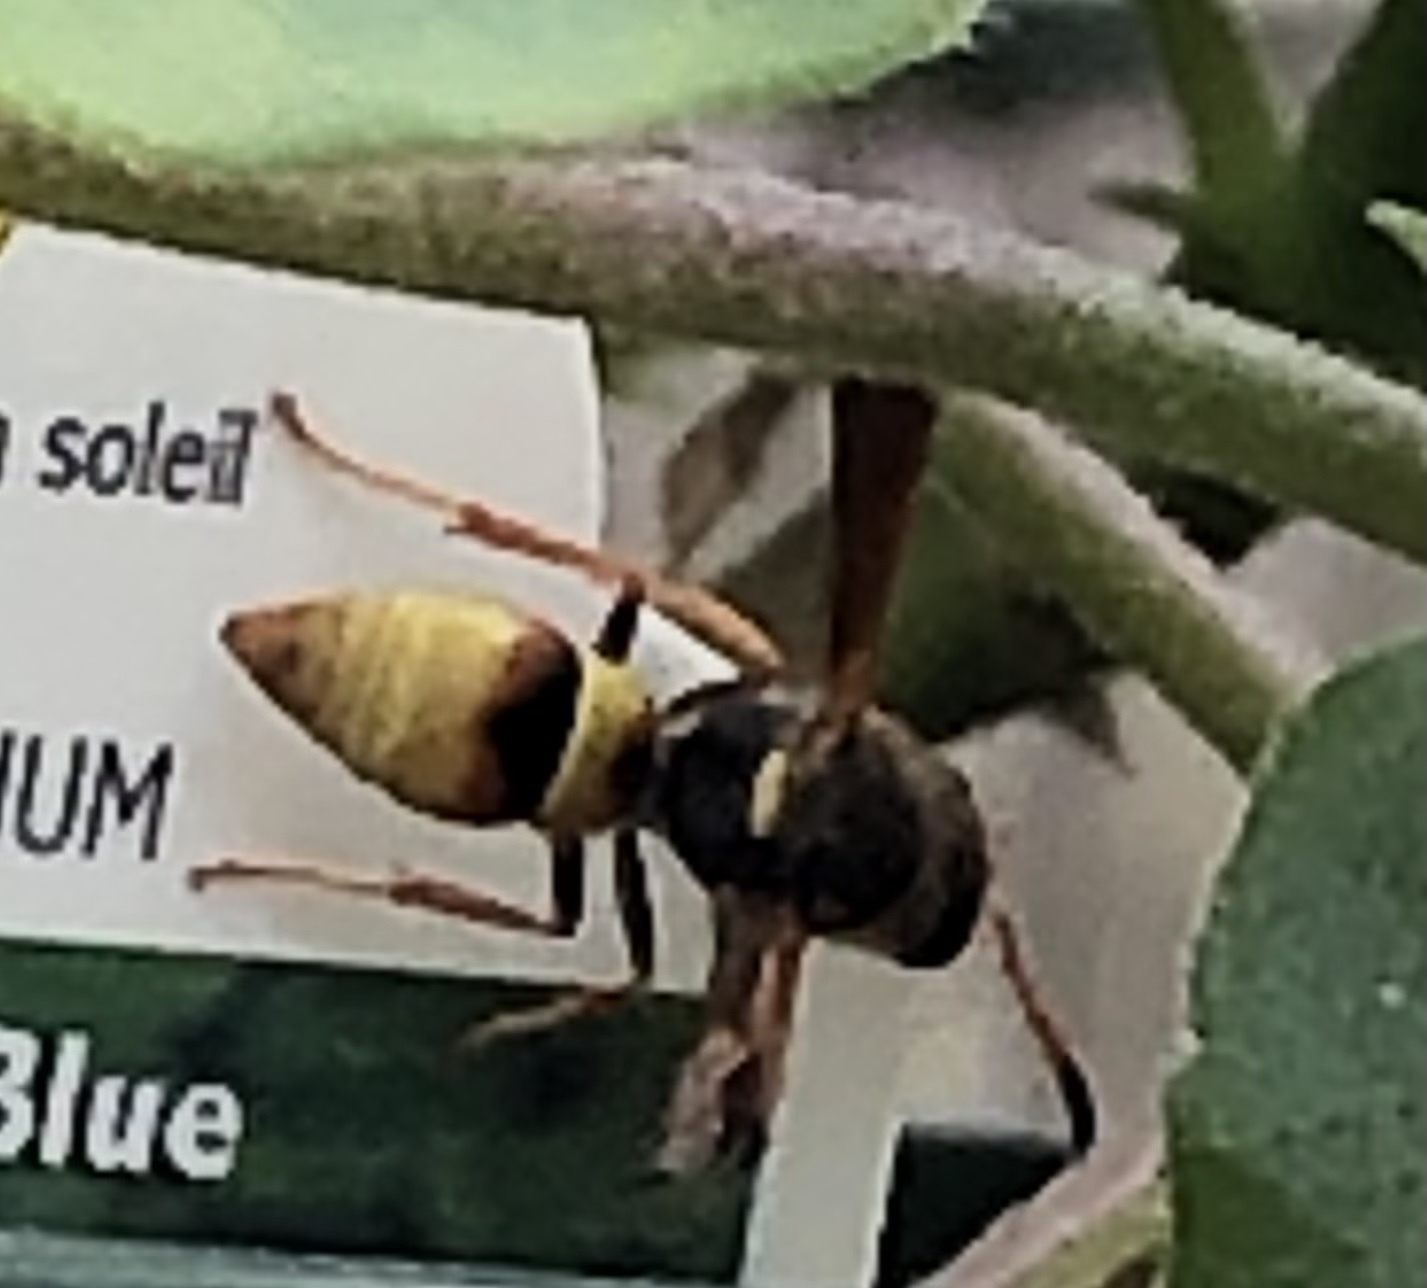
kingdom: Animalia
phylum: Arthropoda
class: Insecta
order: Hymenoptera
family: Vespidae
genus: Ancistrocerus
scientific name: Ancistrocerus
